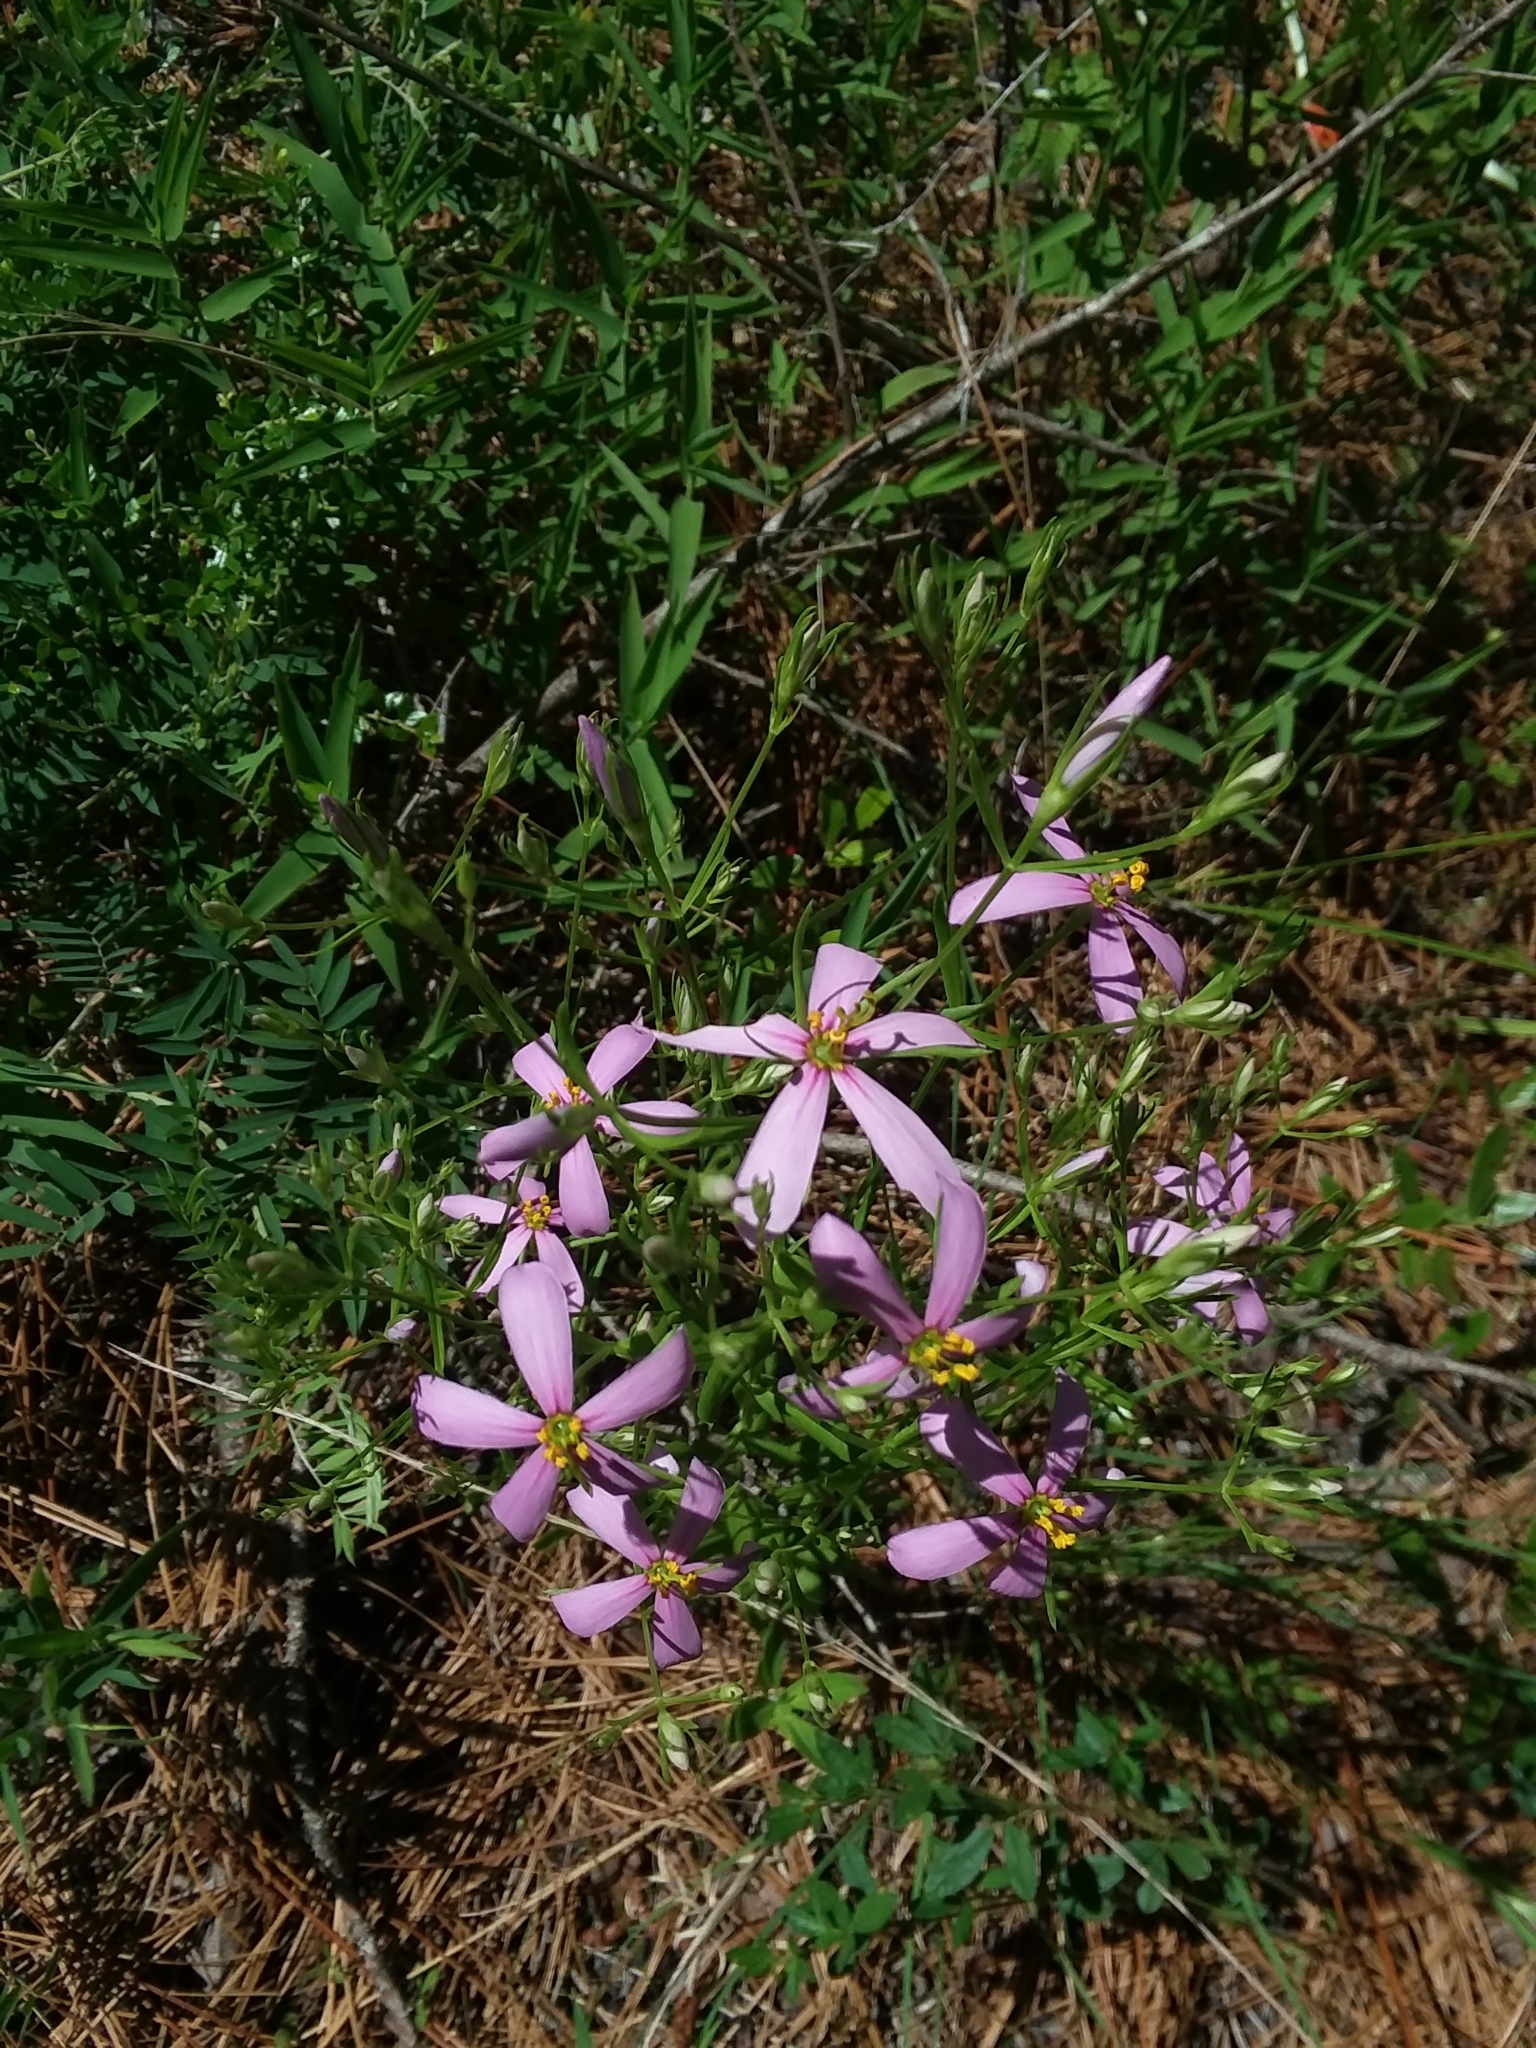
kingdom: Plantae
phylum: Tracheophyta
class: Magnoliopsida
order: Gentianales
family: Gentianaceae
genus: Sabatia
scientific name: Sabatia brachiata
